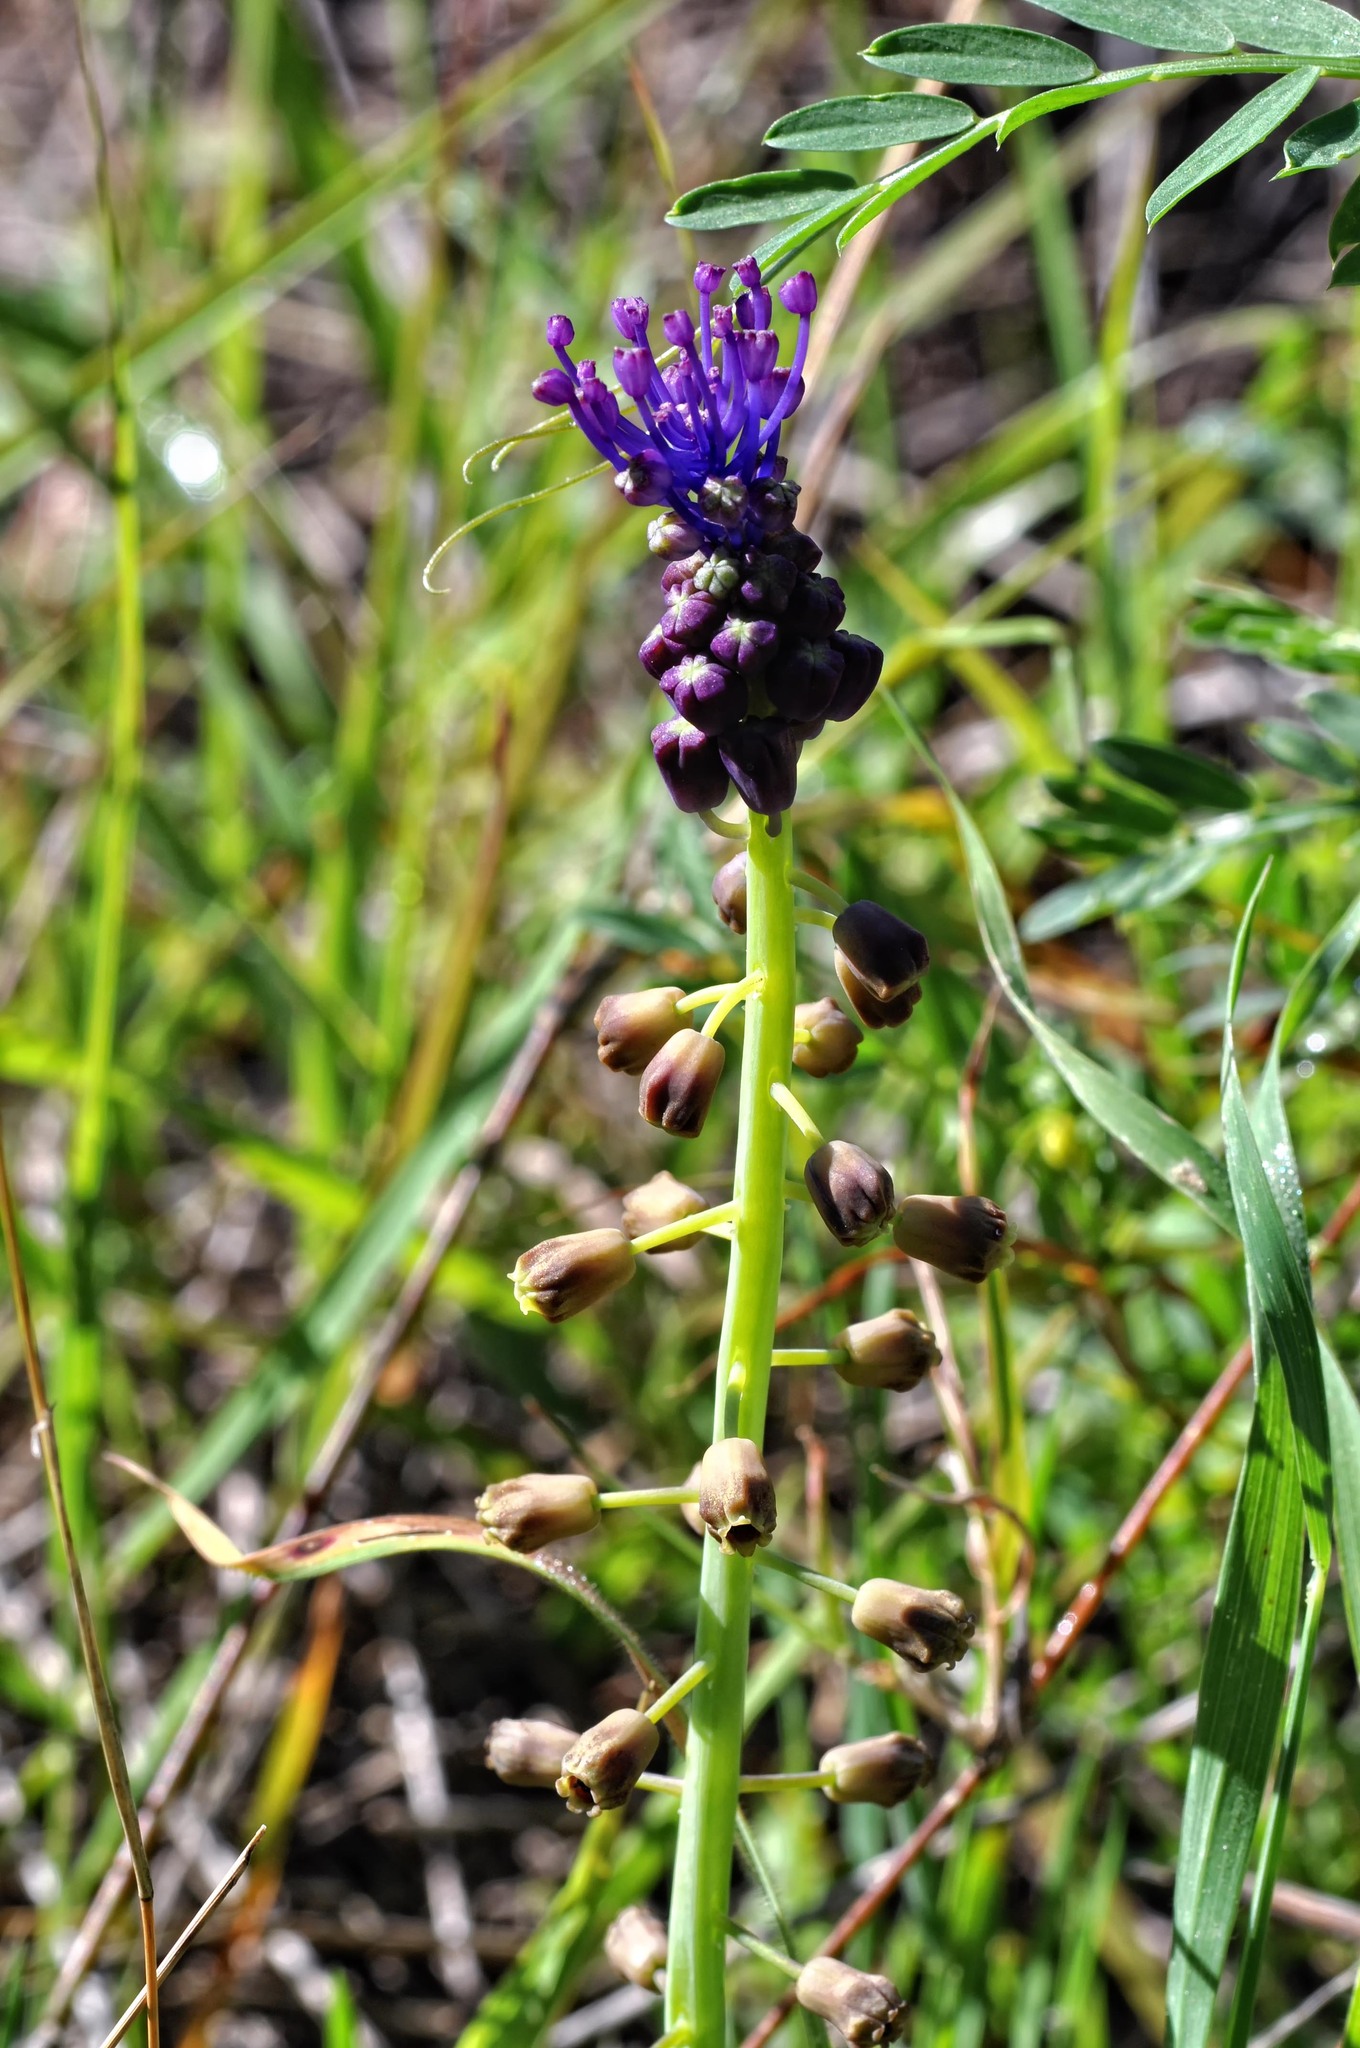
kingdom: Plantae
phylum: Tracheophyta
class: Liliopsida
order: Asparagales
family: Asparagaceae
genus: Muscari
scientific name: Muscari comosum
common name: Tassel hyacinth
